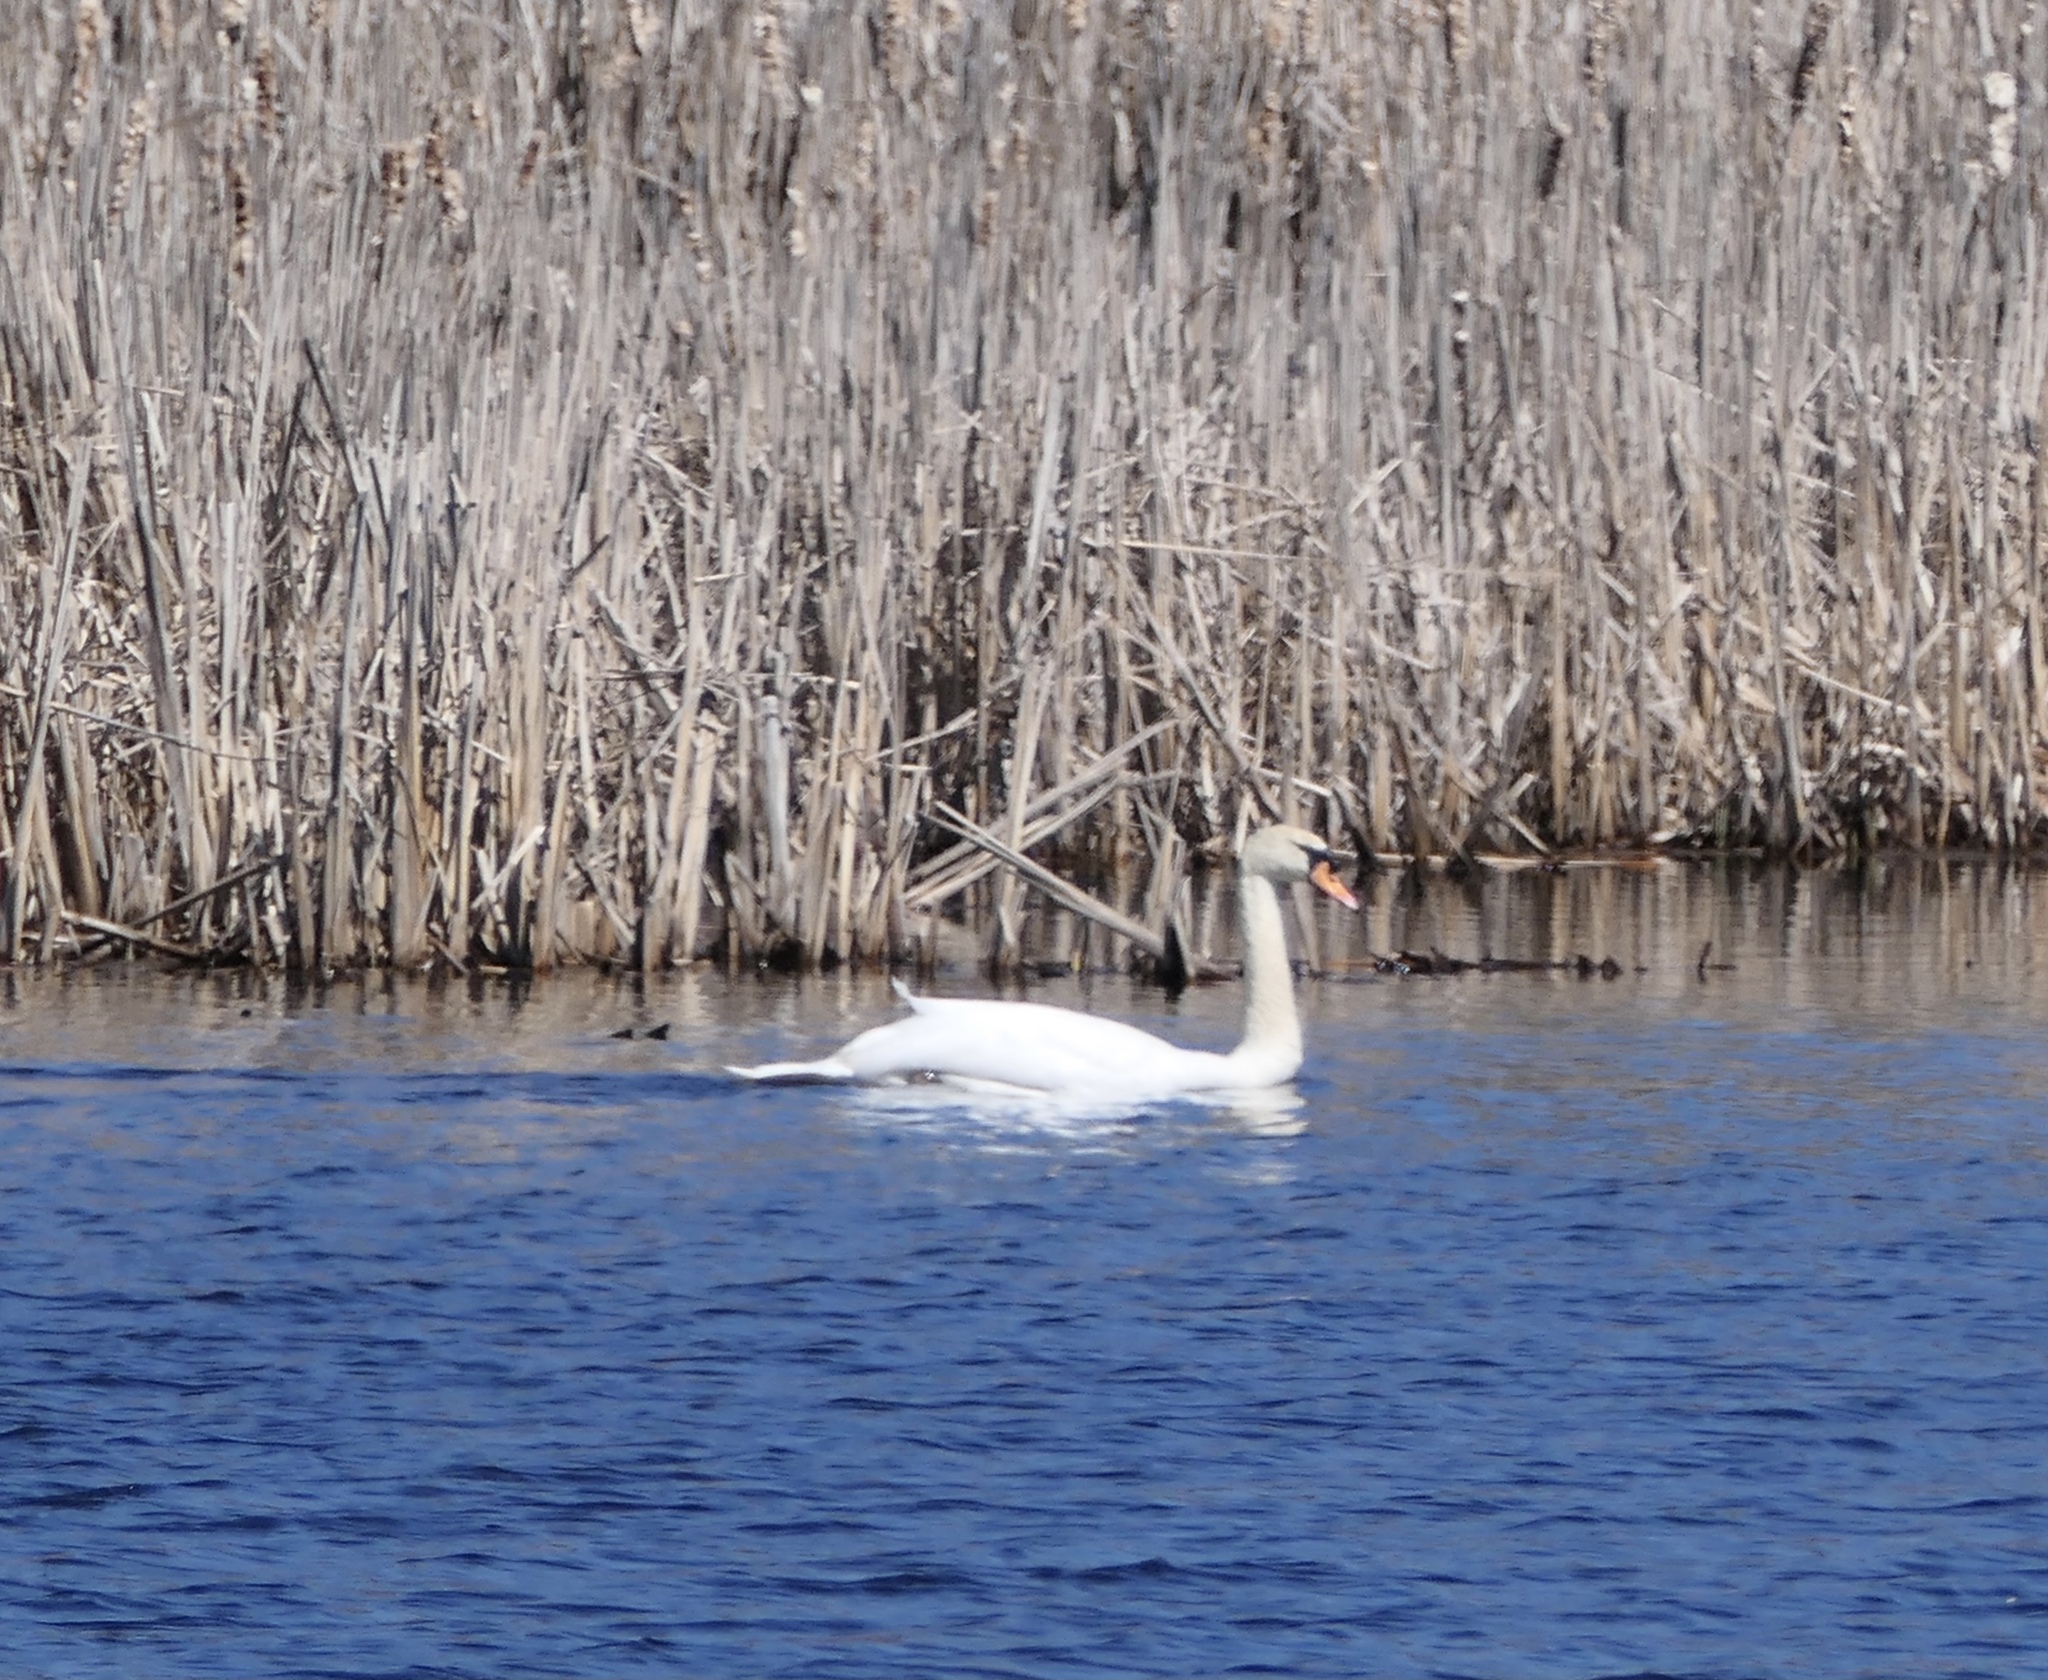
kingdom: Animalia
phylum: Chordata
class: Aves
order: Anseriformes
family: Anatidae
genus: Cygnus
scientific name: Cygnus olor
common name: Mute swan
